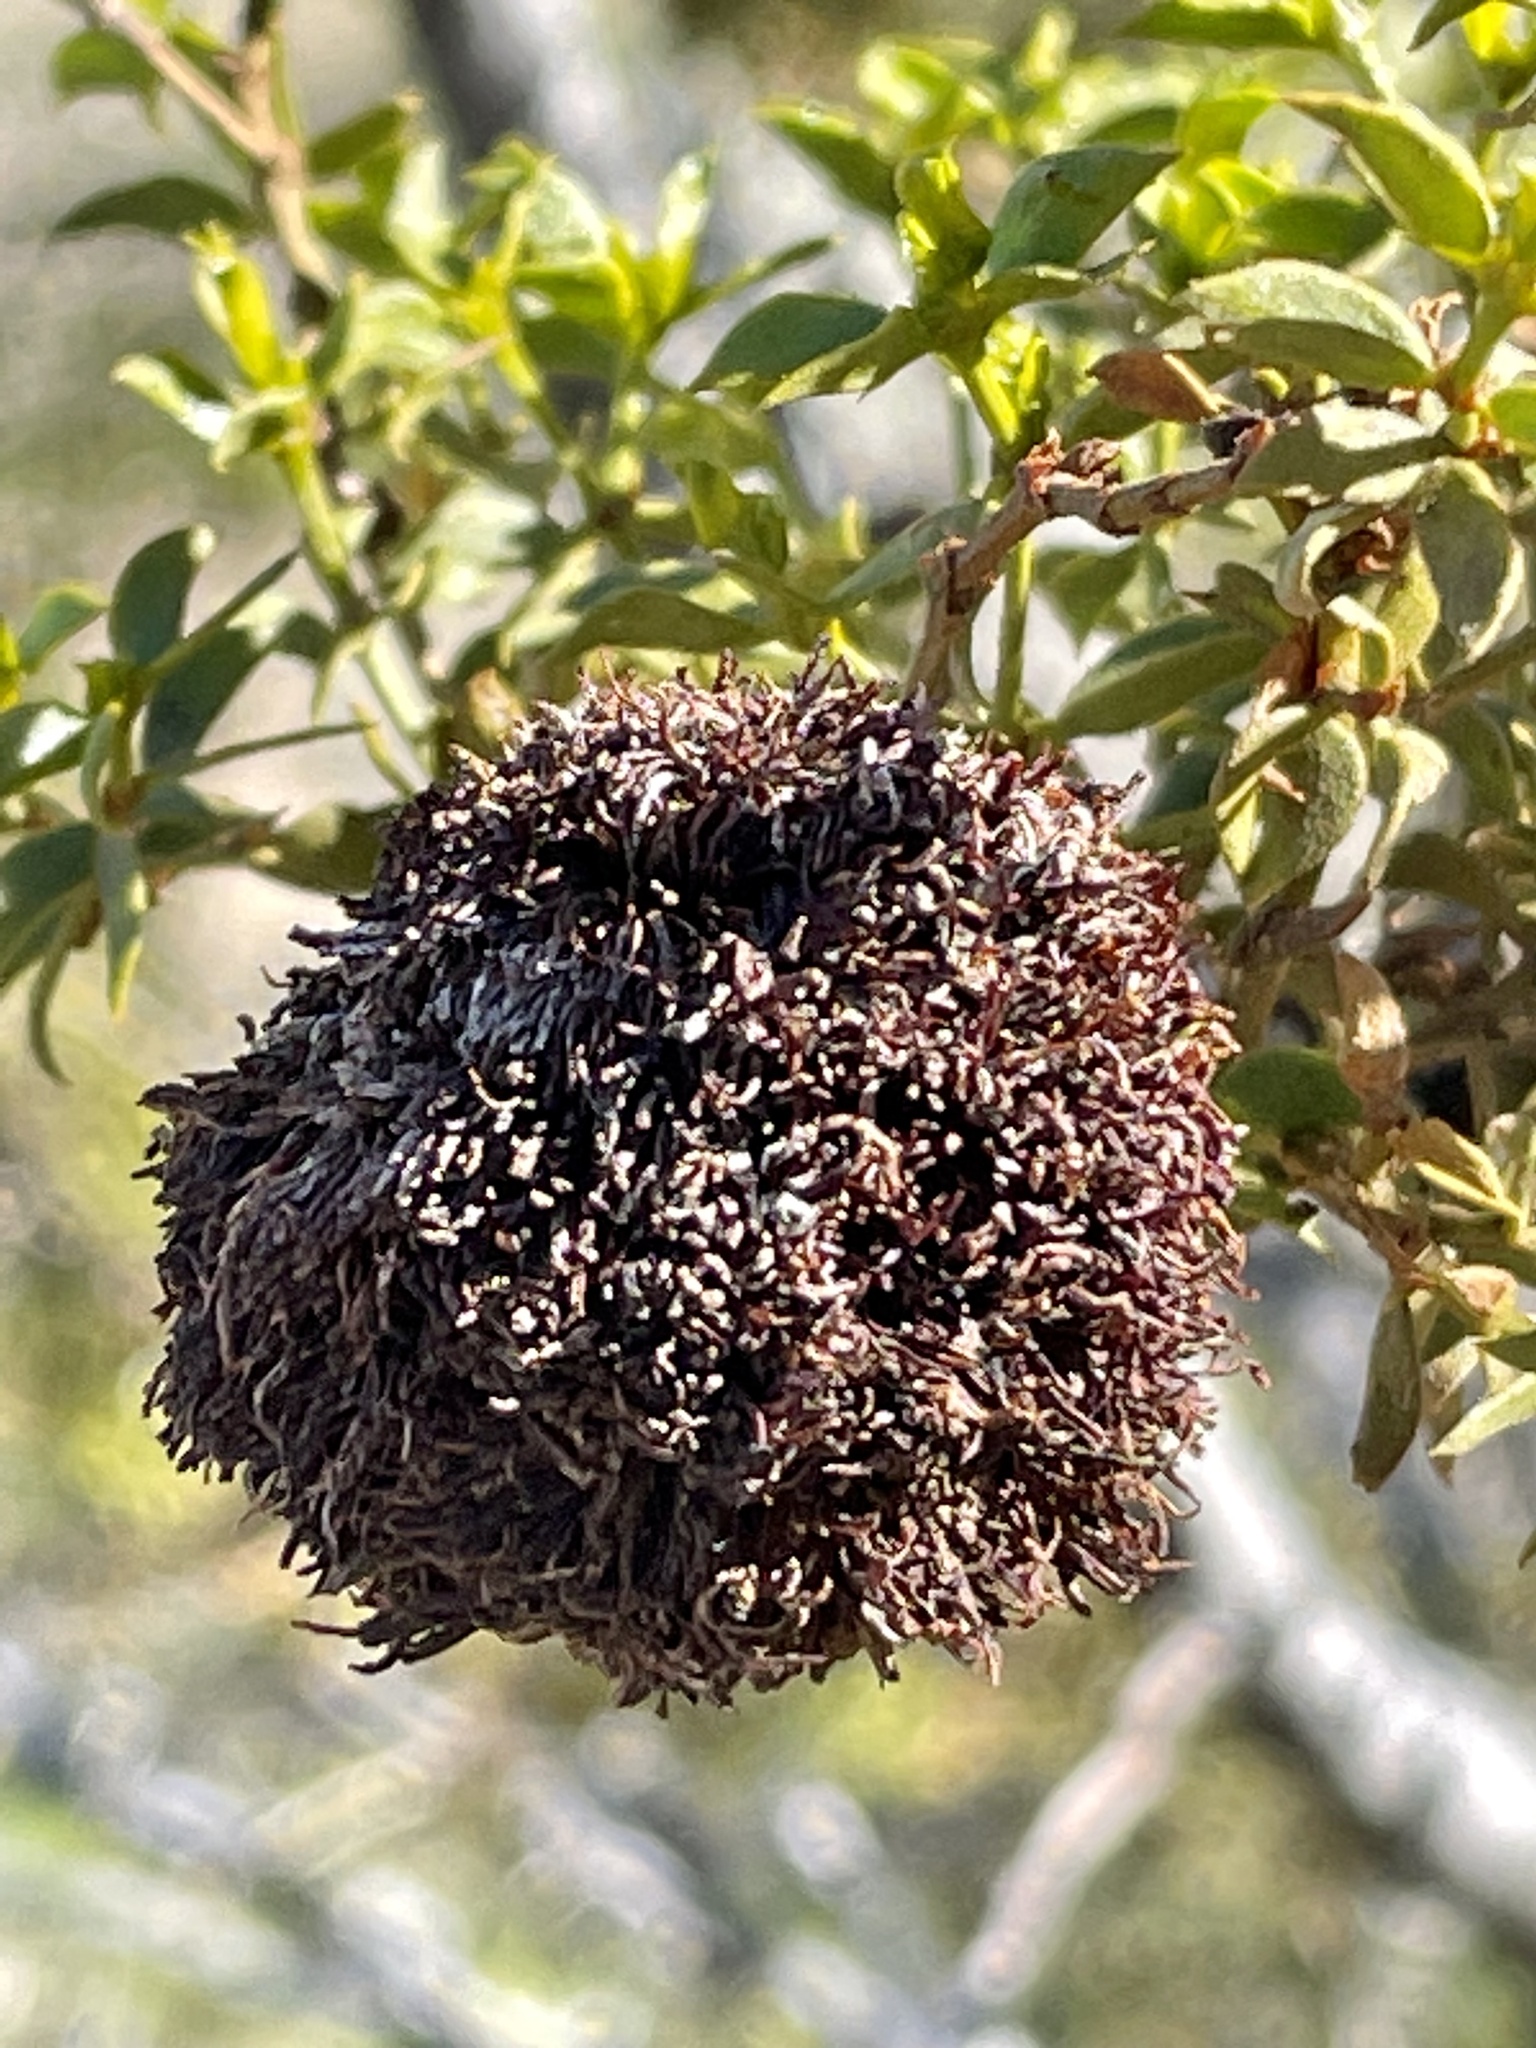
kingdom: Animalia
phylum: Arthropoda
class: Insecta
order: Diptera
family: Cecidomyiidae
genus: Asphondylia
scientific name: Asphondylia auripila
